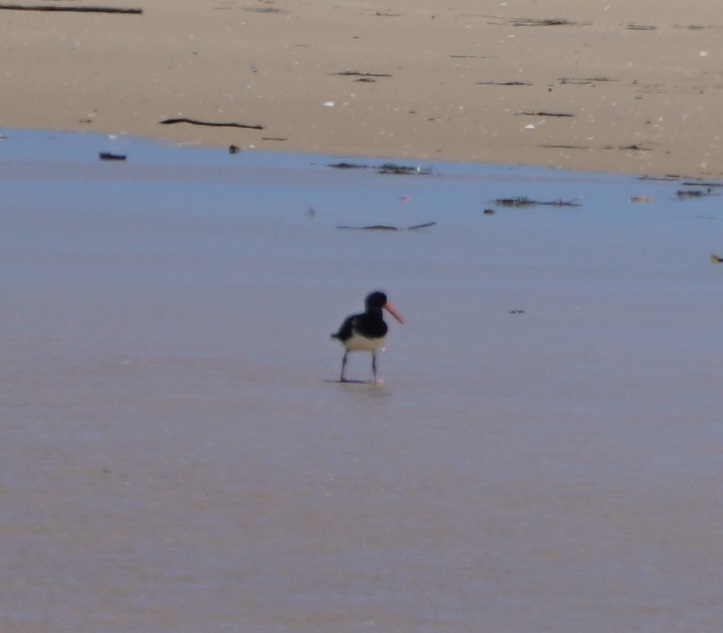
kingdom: Animalia
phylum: Chordata
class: Aves
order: Charadriiformes
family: Haematopodidae
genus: Haematopus
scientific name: Haematopus longirostris
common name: Pied oystercatcher
